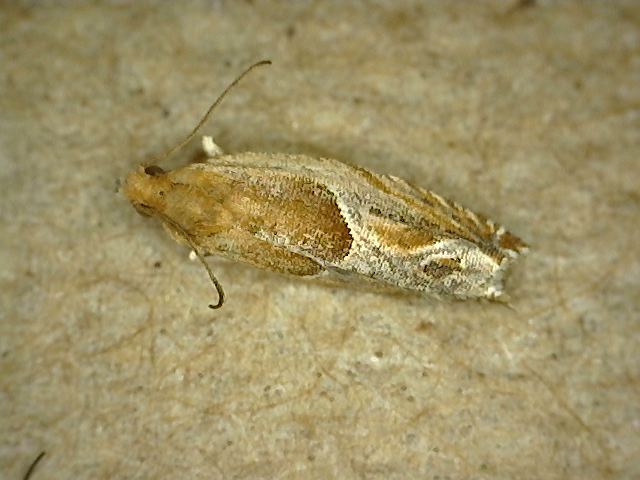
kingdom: Animalia
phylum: Arthropoda
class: Insecta
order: Lepidoptera
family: Tortricidae
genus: Ancylis
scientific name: Ancylis comptana
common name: Little roller
